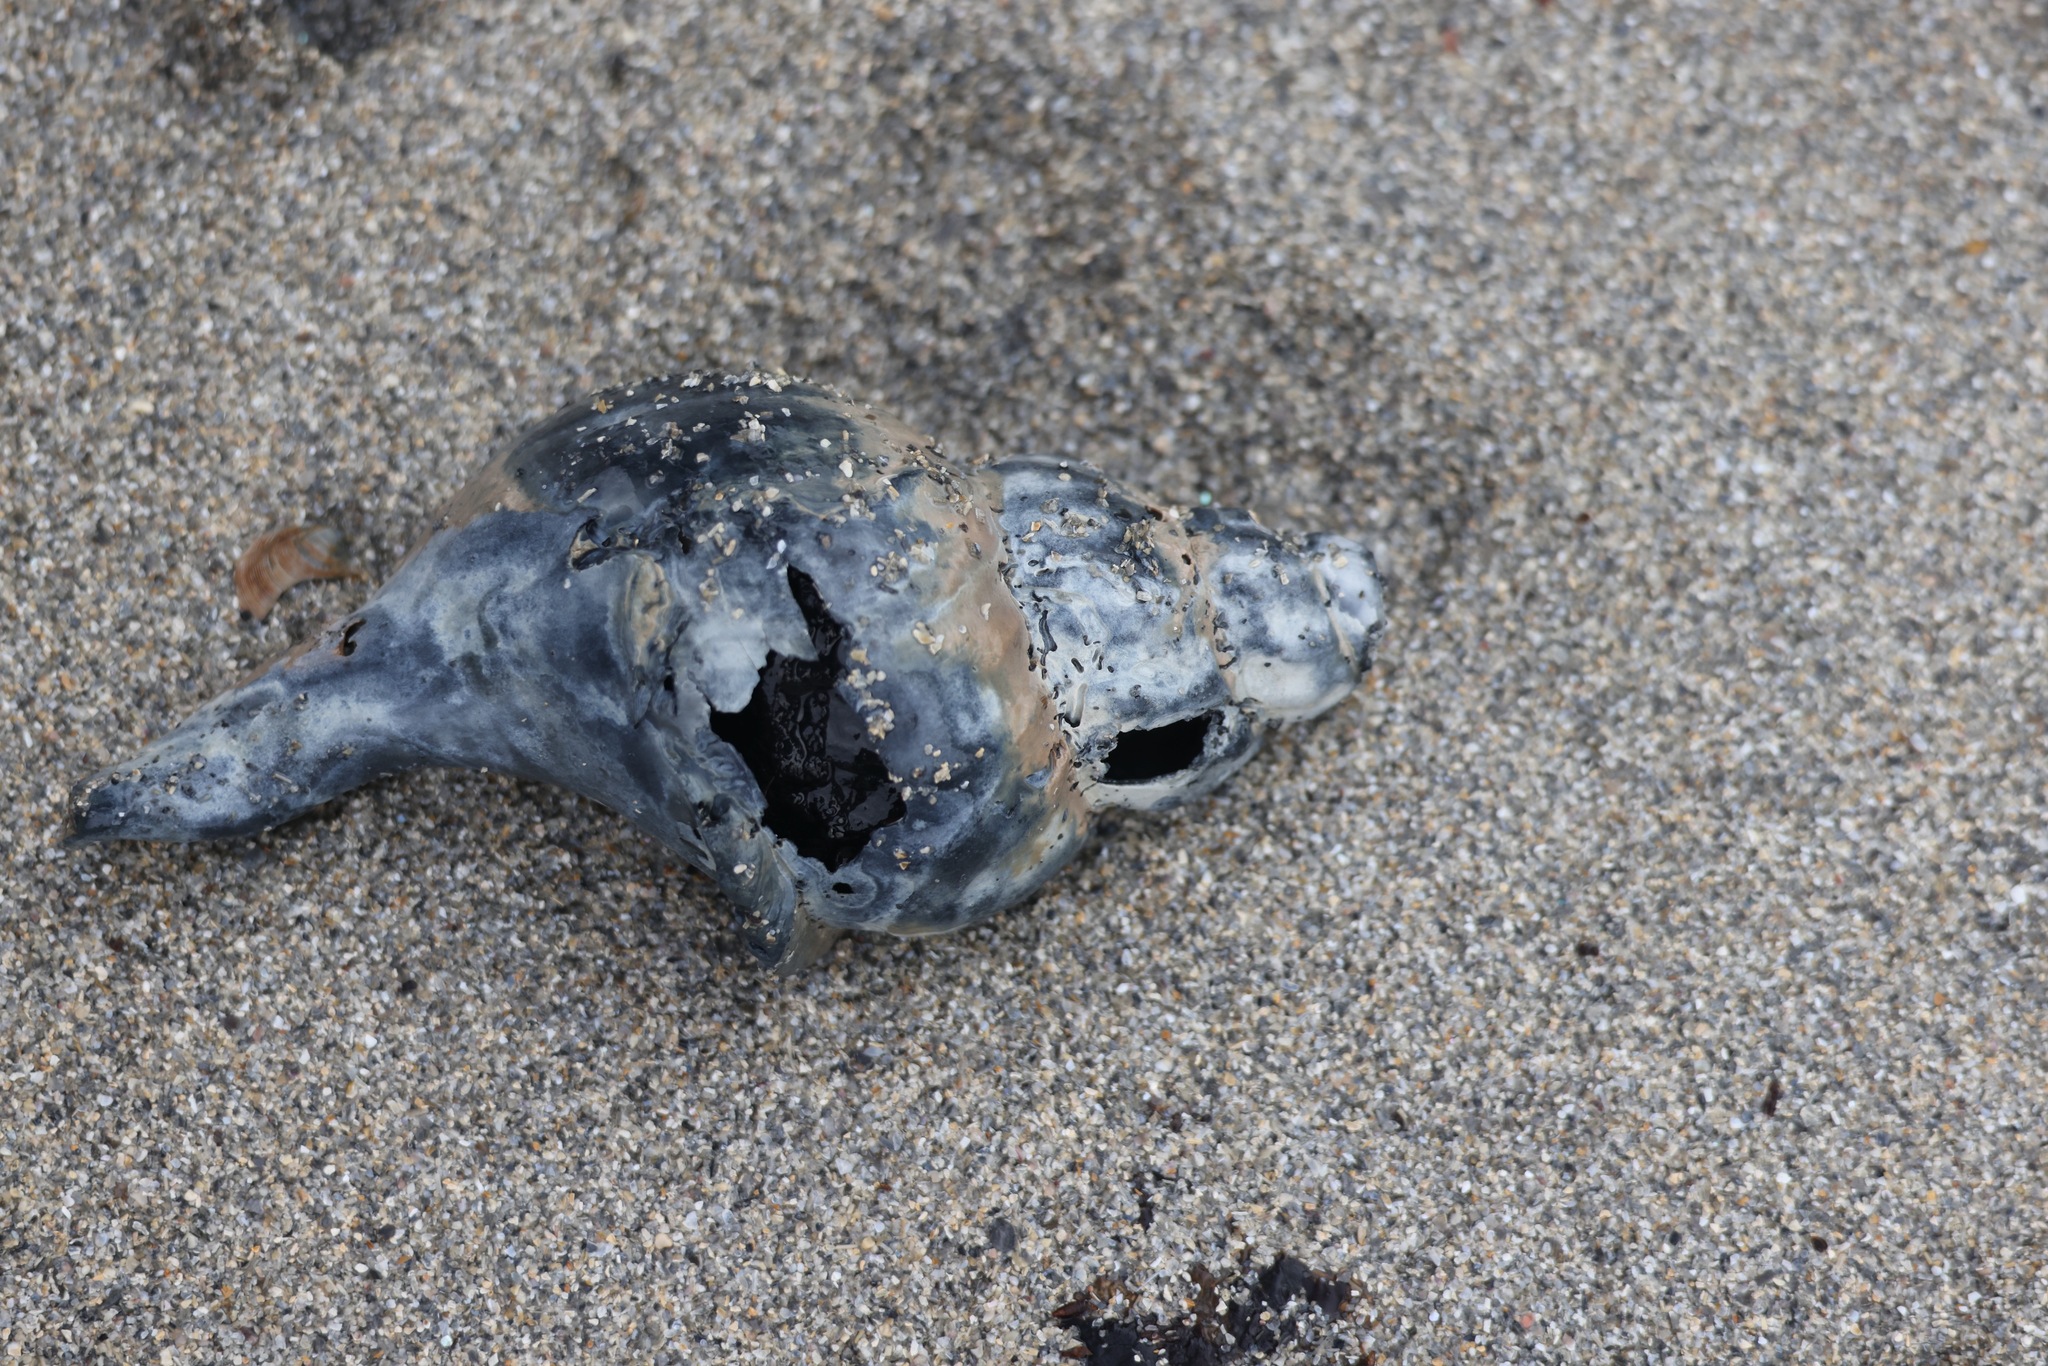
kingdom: Animalia
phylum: Mollusca
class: Gastropoda
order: Neogastropoda
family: Buccinidae
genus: Buccinum
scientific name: Buccinum undatum
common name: Common whelk
